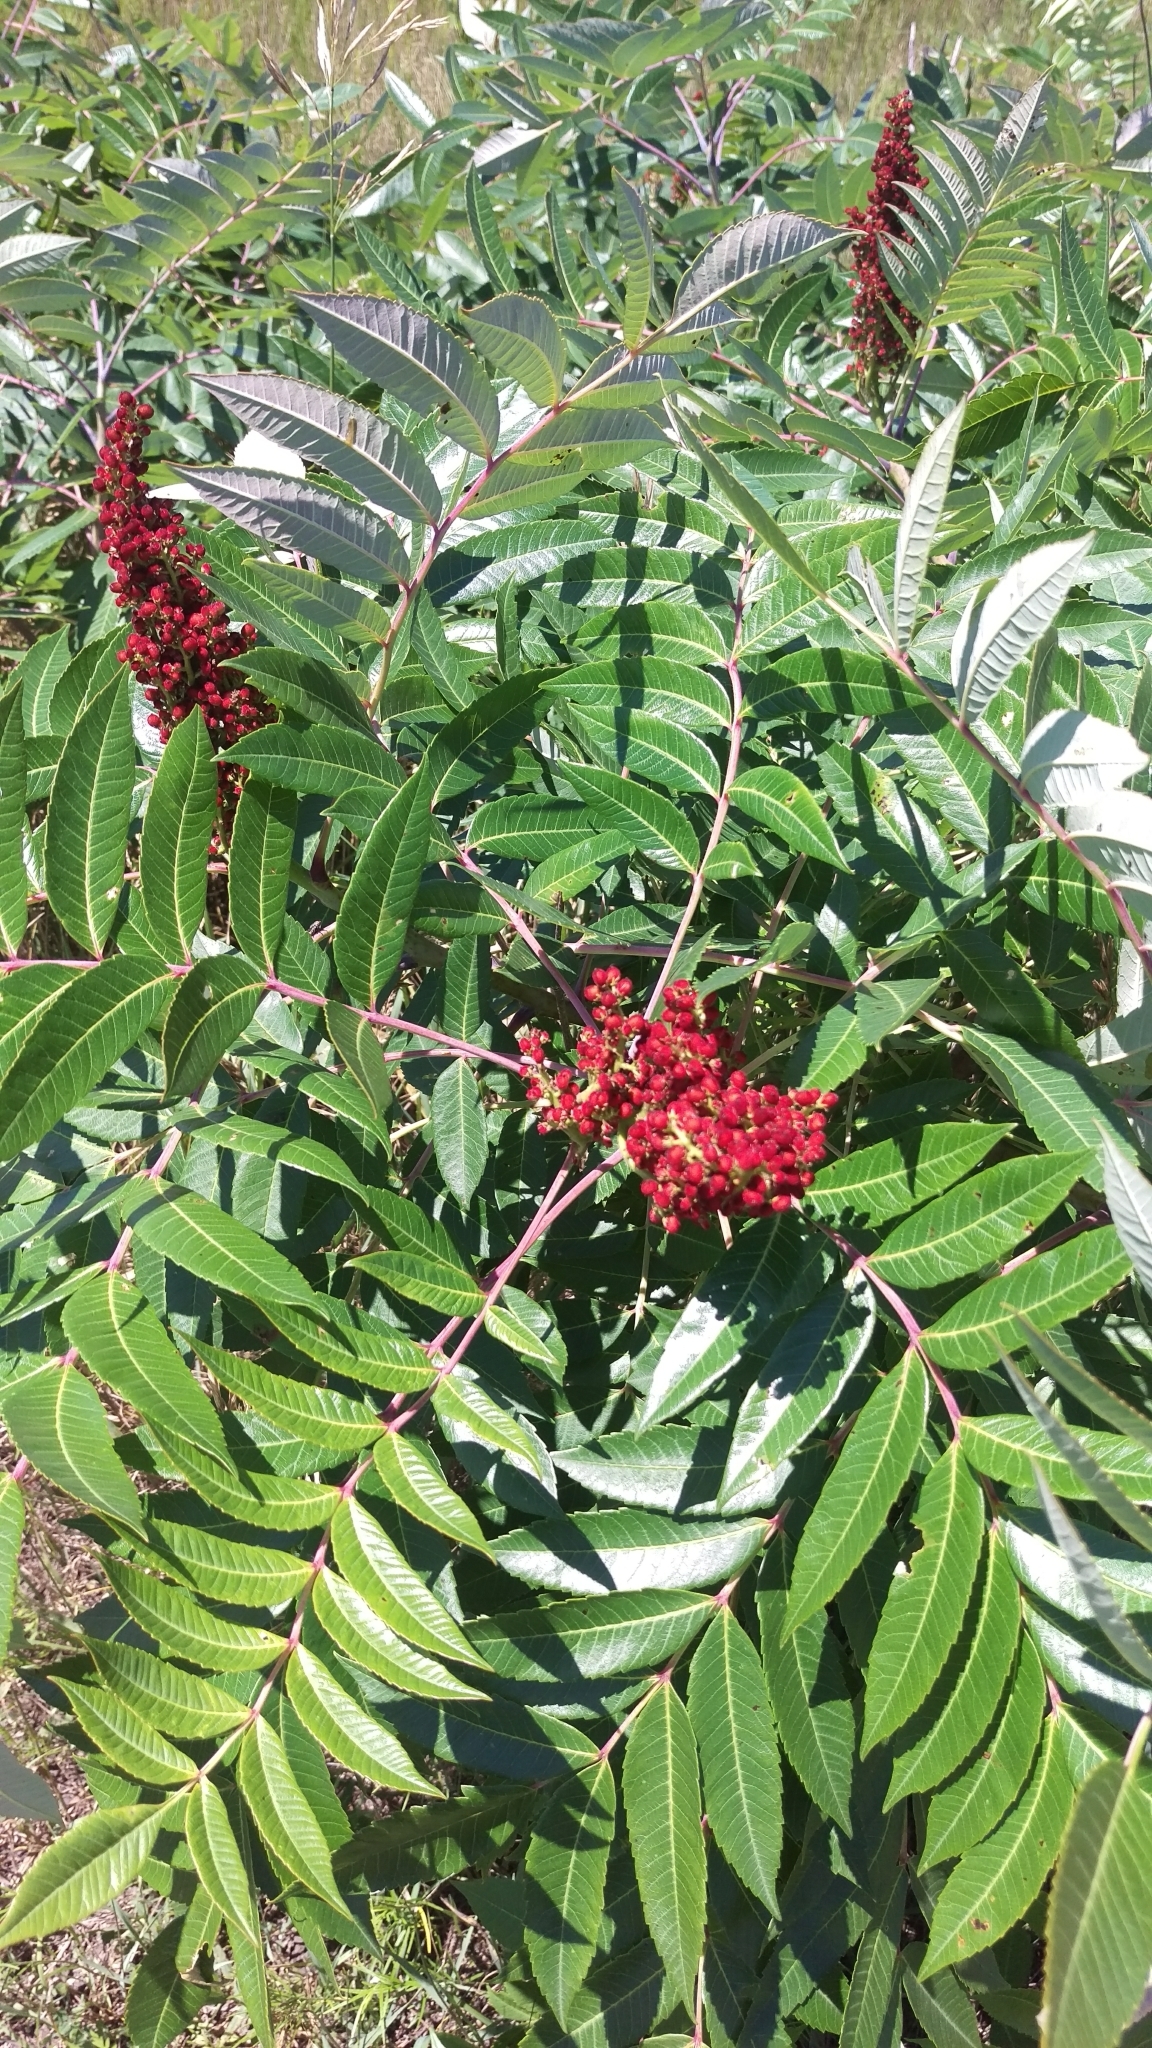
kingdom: Plantae
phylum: Tracheophyta
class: Magnoliopsida
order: Sapindales
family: Anacardiaceae
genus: Rhus
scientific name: Rhus glabra
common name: Scarlet sumac
